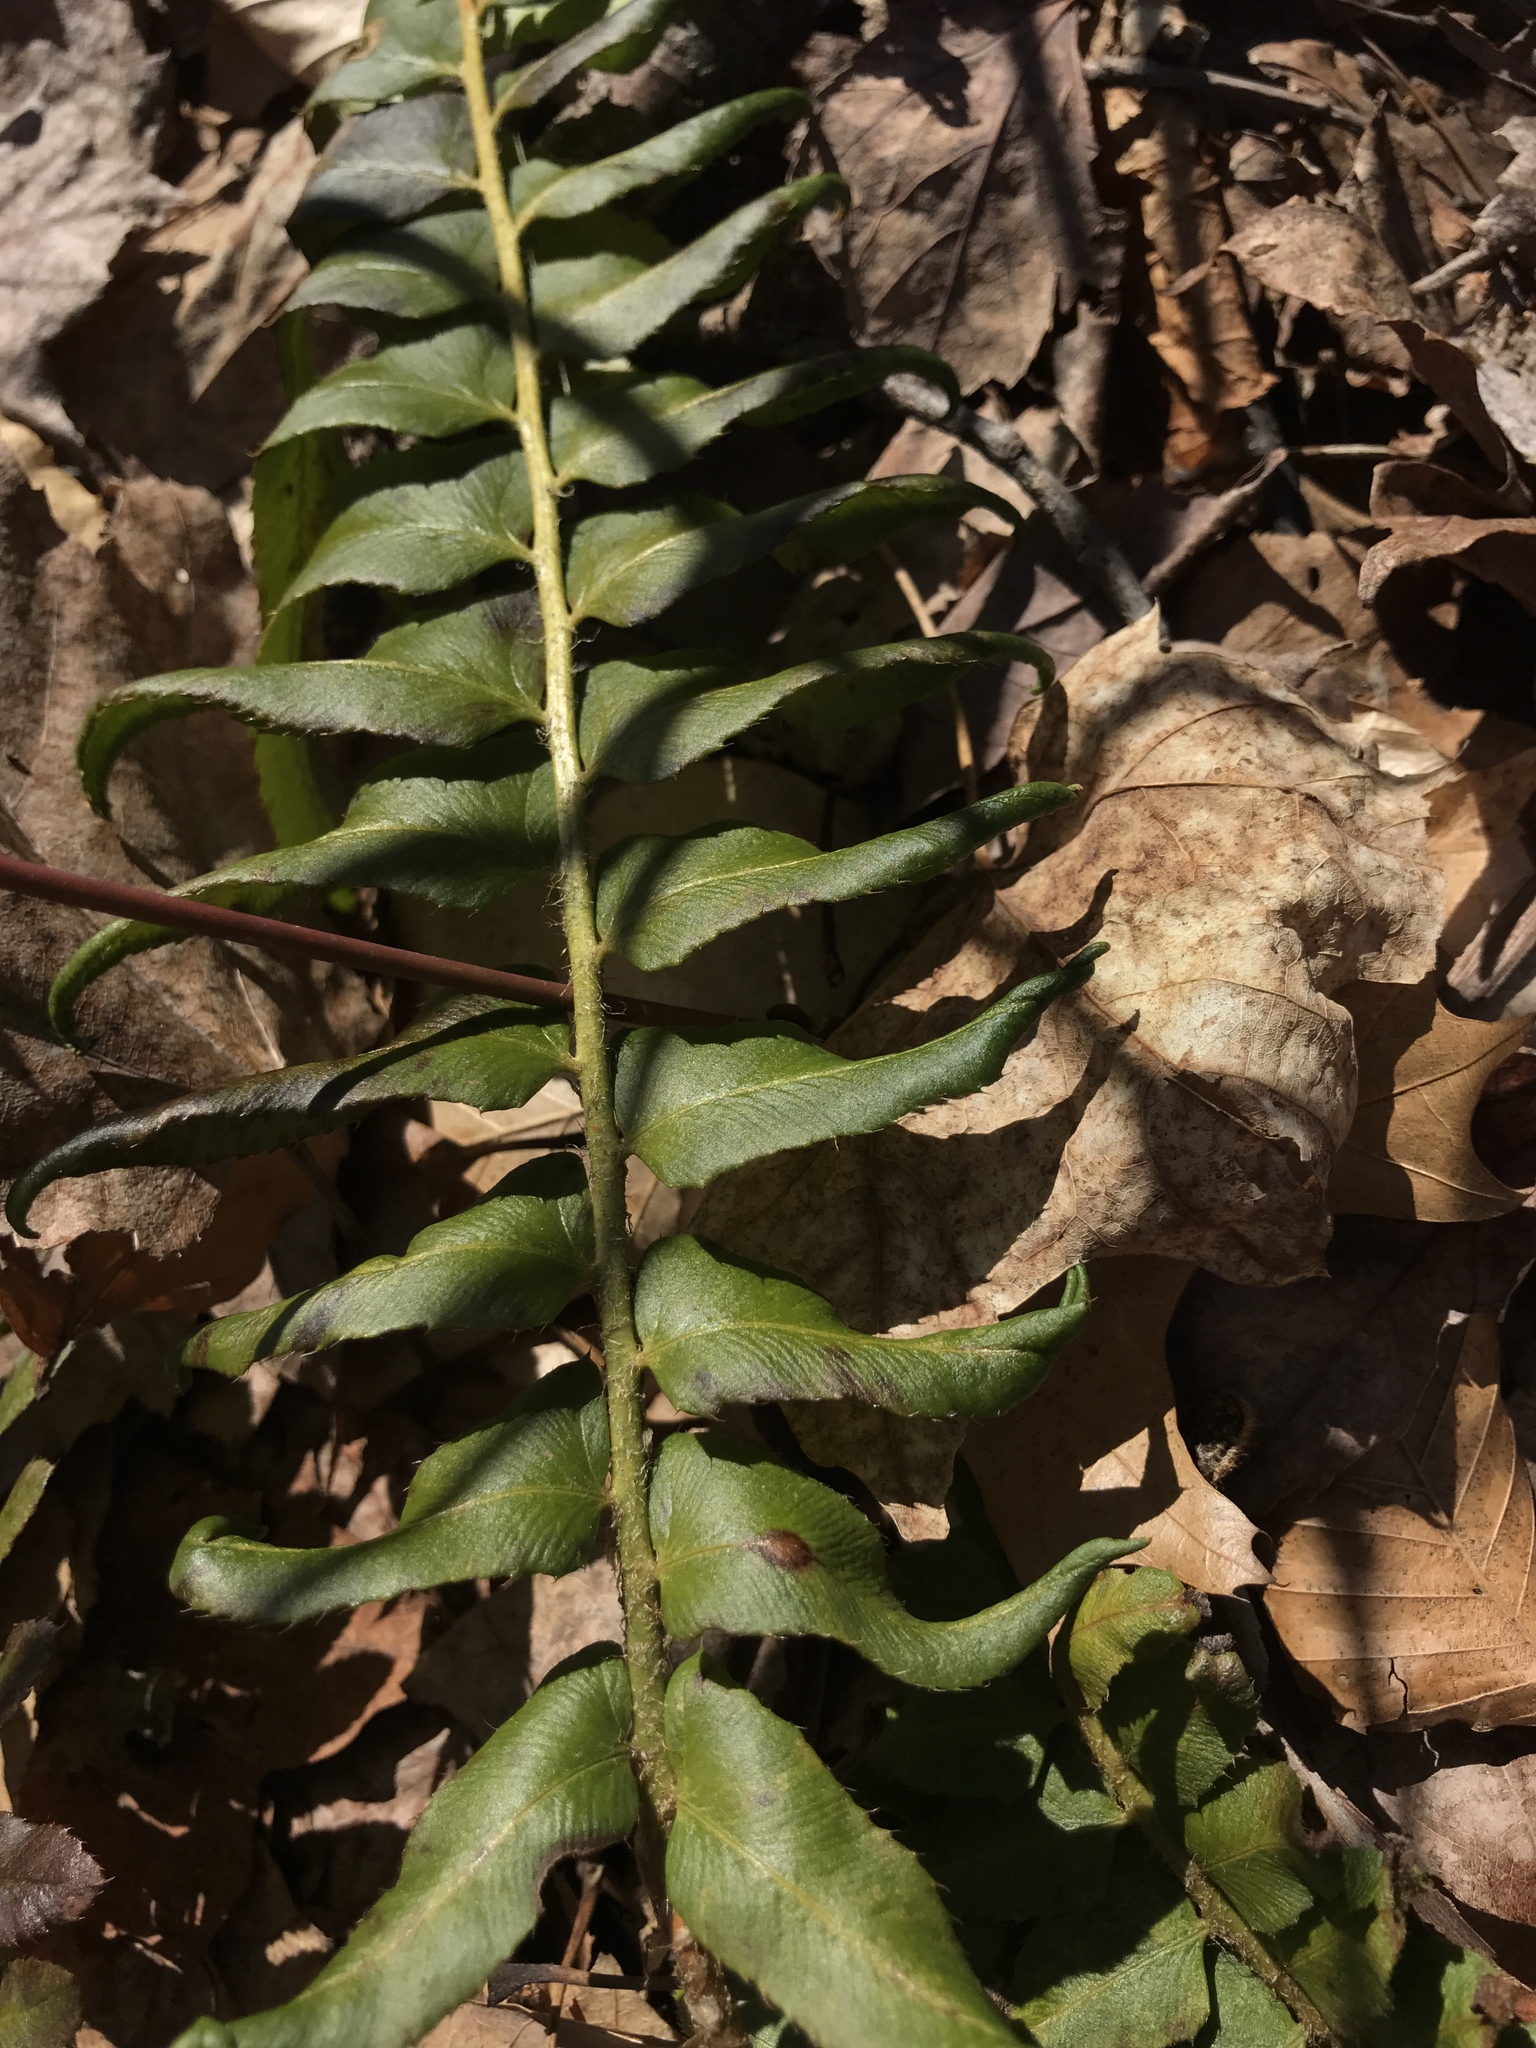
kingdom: Plantae
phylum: Tracheophyta
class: Polypodiopsida
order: Polypodiales
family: Dryopteridaceae
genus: Polystichum
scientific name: Polystichum acrostichoides
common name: Christmas fern
